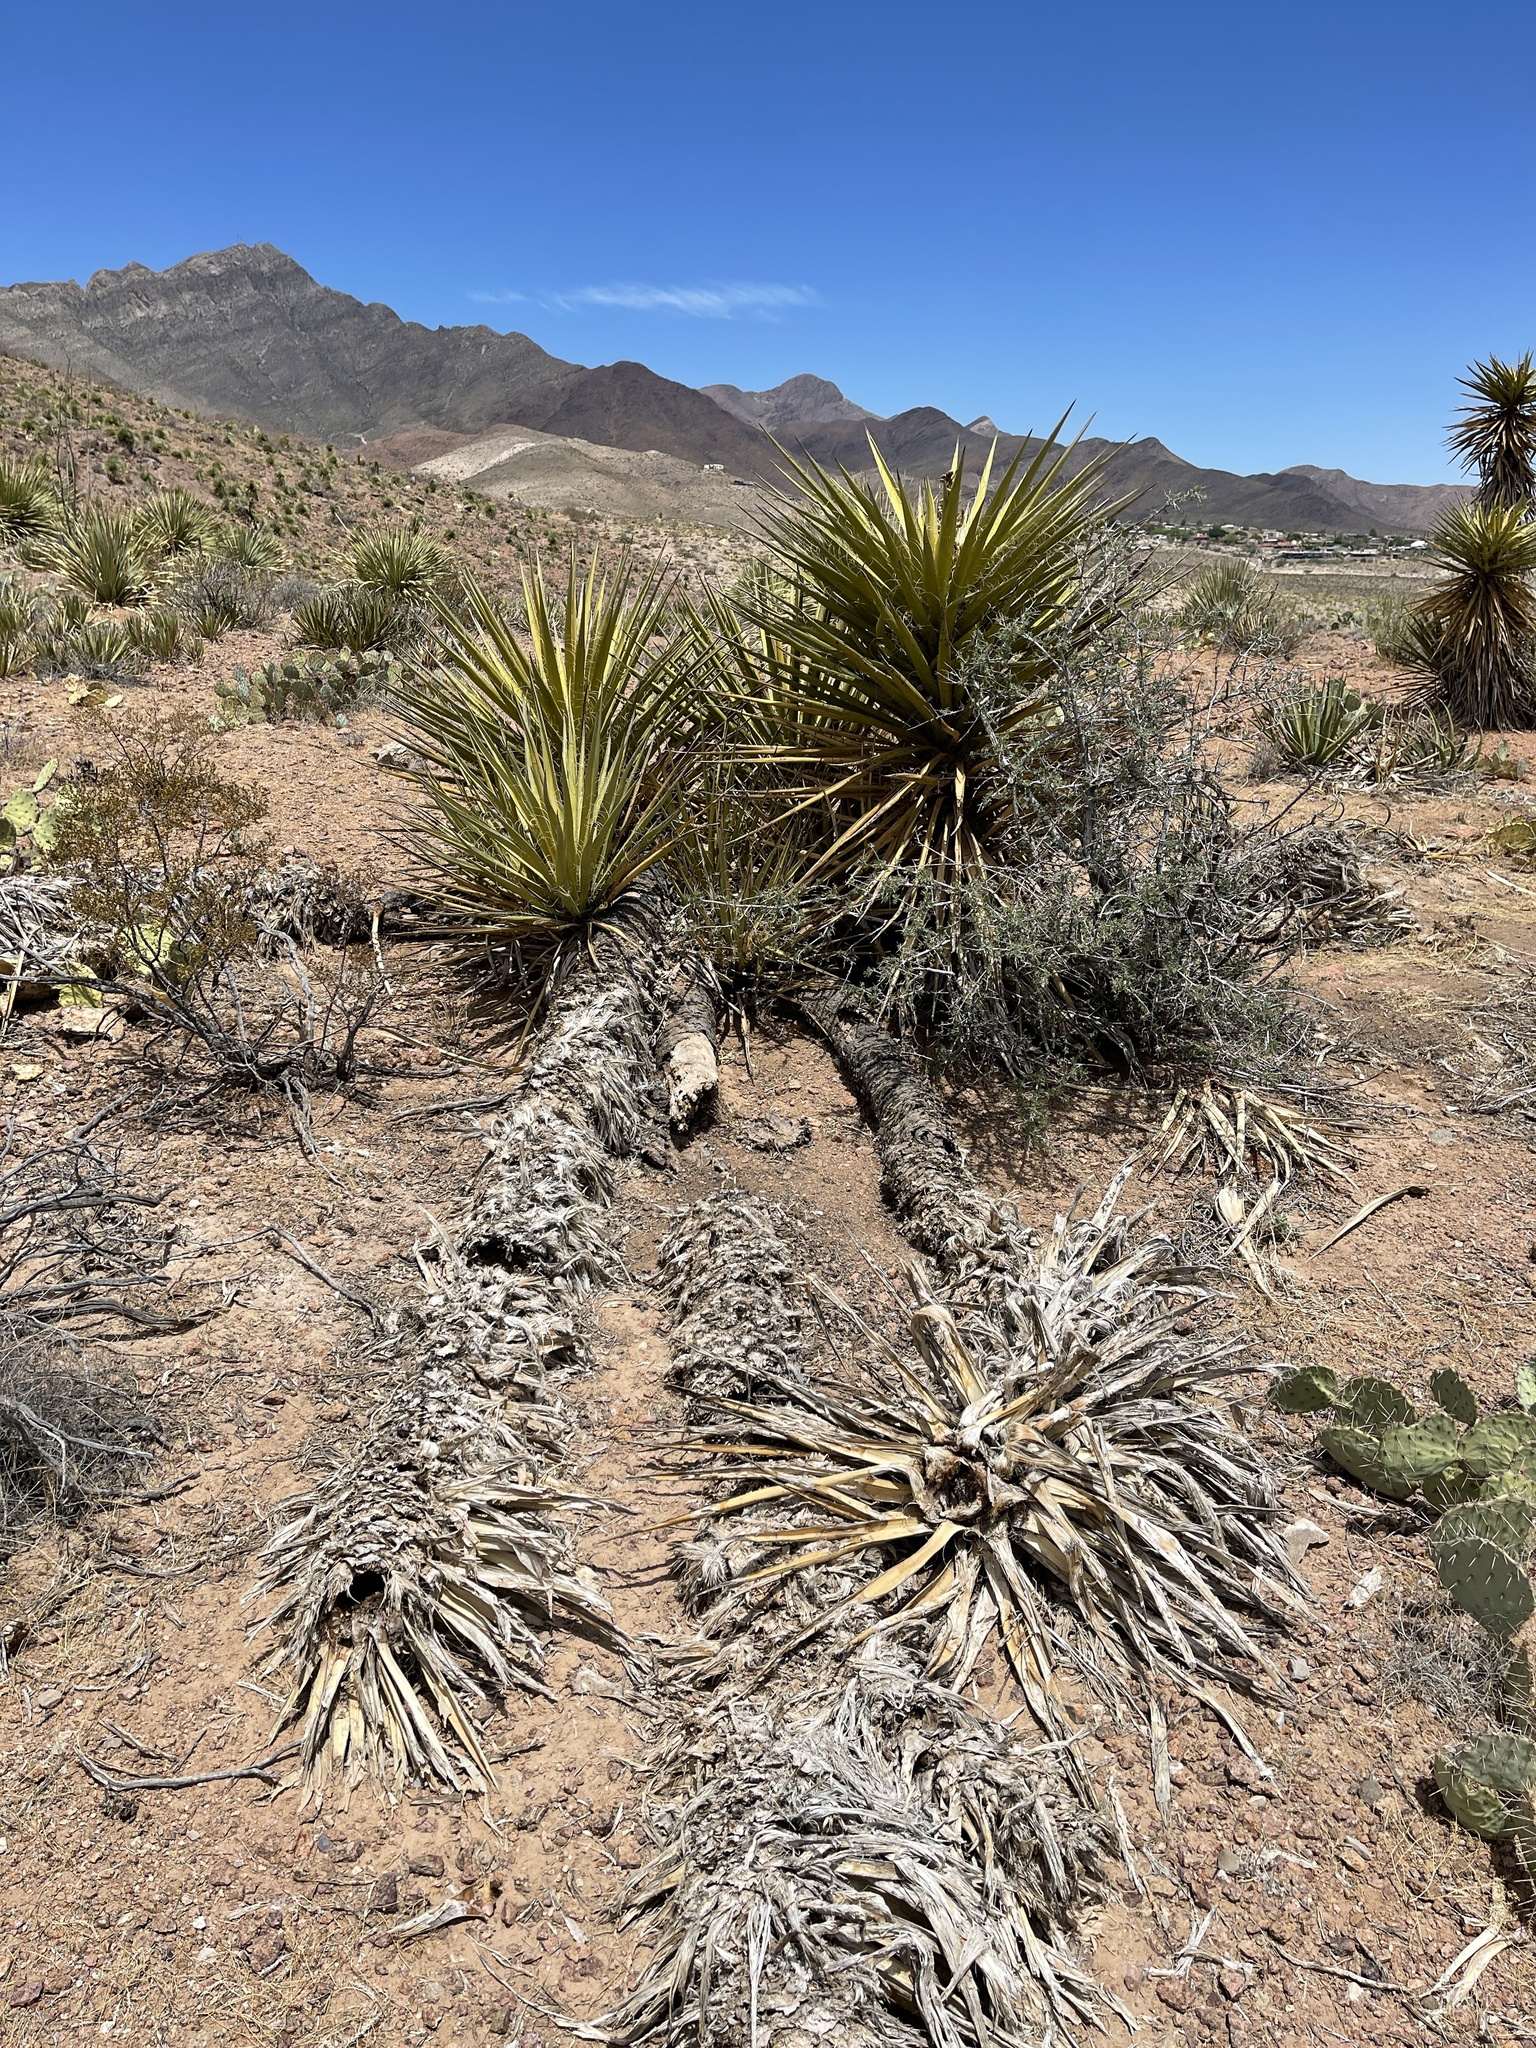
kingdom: Plantae
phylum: Tracheophyta
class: Liliopsida
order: Asparagales
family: Asparagaceae
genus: Yucca
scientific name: Yucca treculiana
